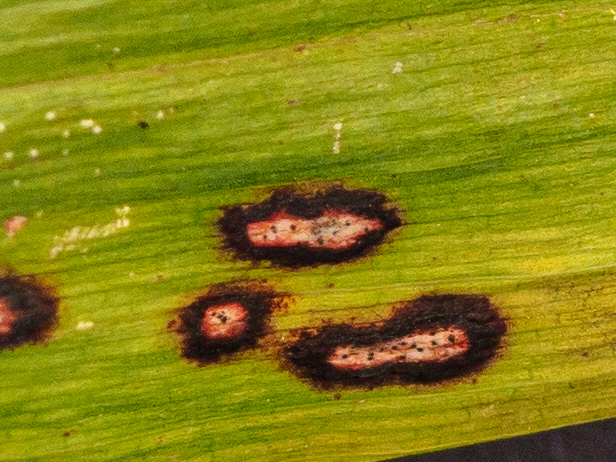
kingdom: Fungi
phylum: Ascomycota
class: Dothideomycetes
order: Botryosphaeriales
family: Phyllostictaceae
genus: Phyllosticta
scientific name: Phyllosticta convallariae
